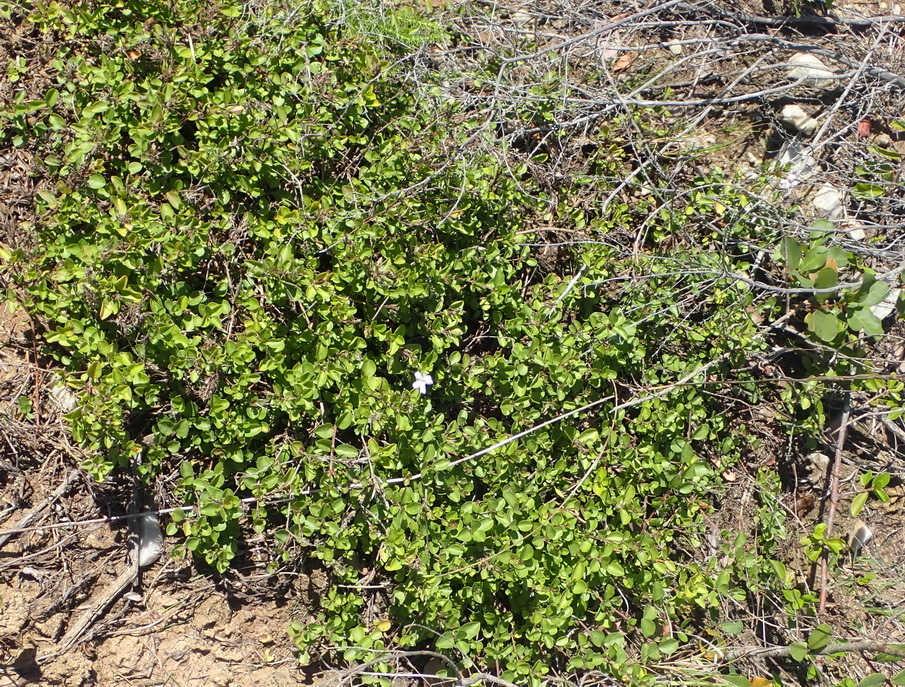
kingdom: Plantae
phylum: Tracheophyta
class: Magnoliopsida
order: Lamiales
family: Acanthaceae
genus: Dyschoriste
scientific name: Dyschoriste costata
